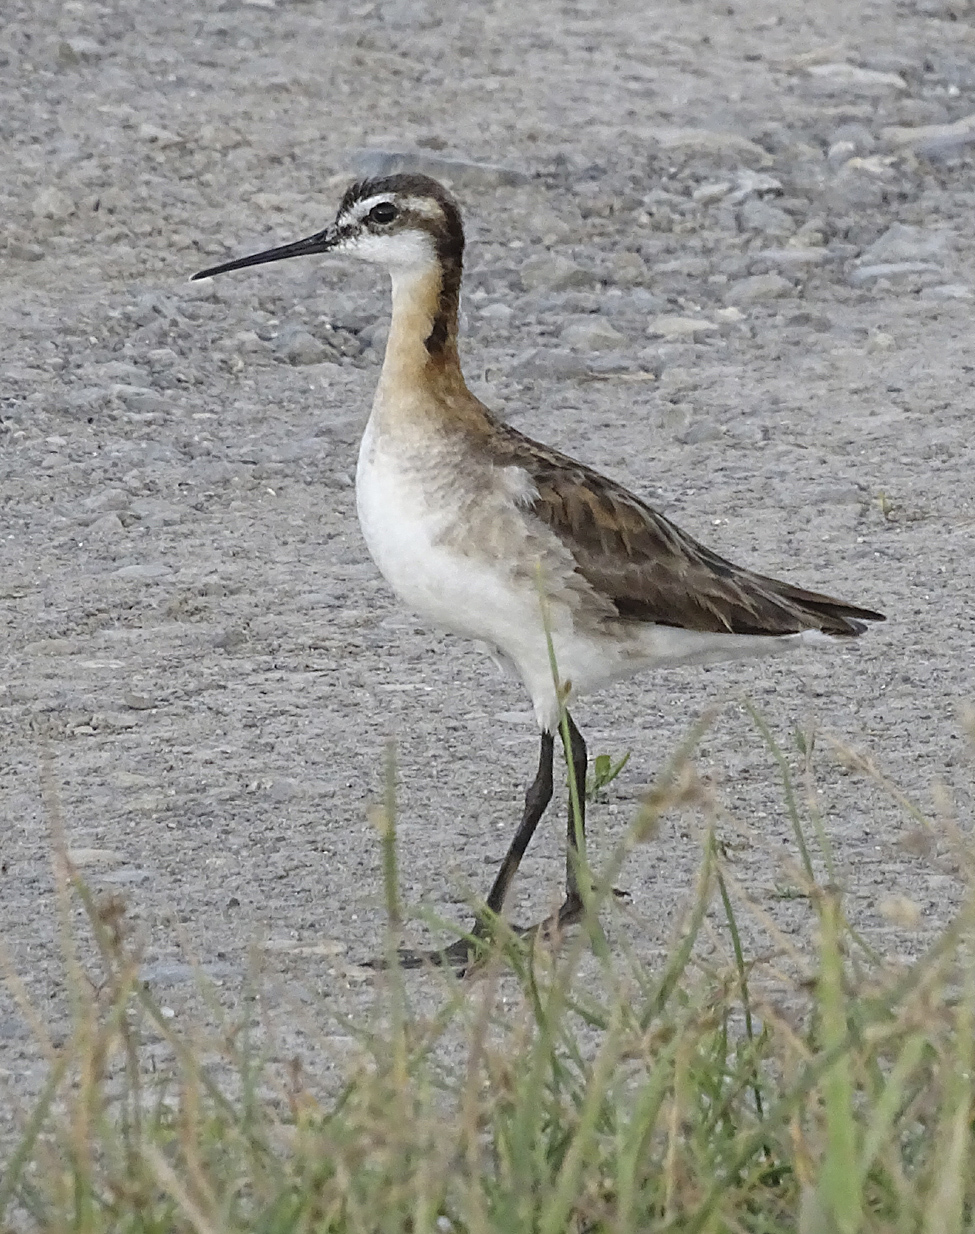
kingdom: Animalia
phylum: Chordata
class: Aves
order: Charadriiformes
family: Scolopacidae
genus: Phalaropus
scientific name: Phalaropus tricolor
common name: Wilson's phalarope
